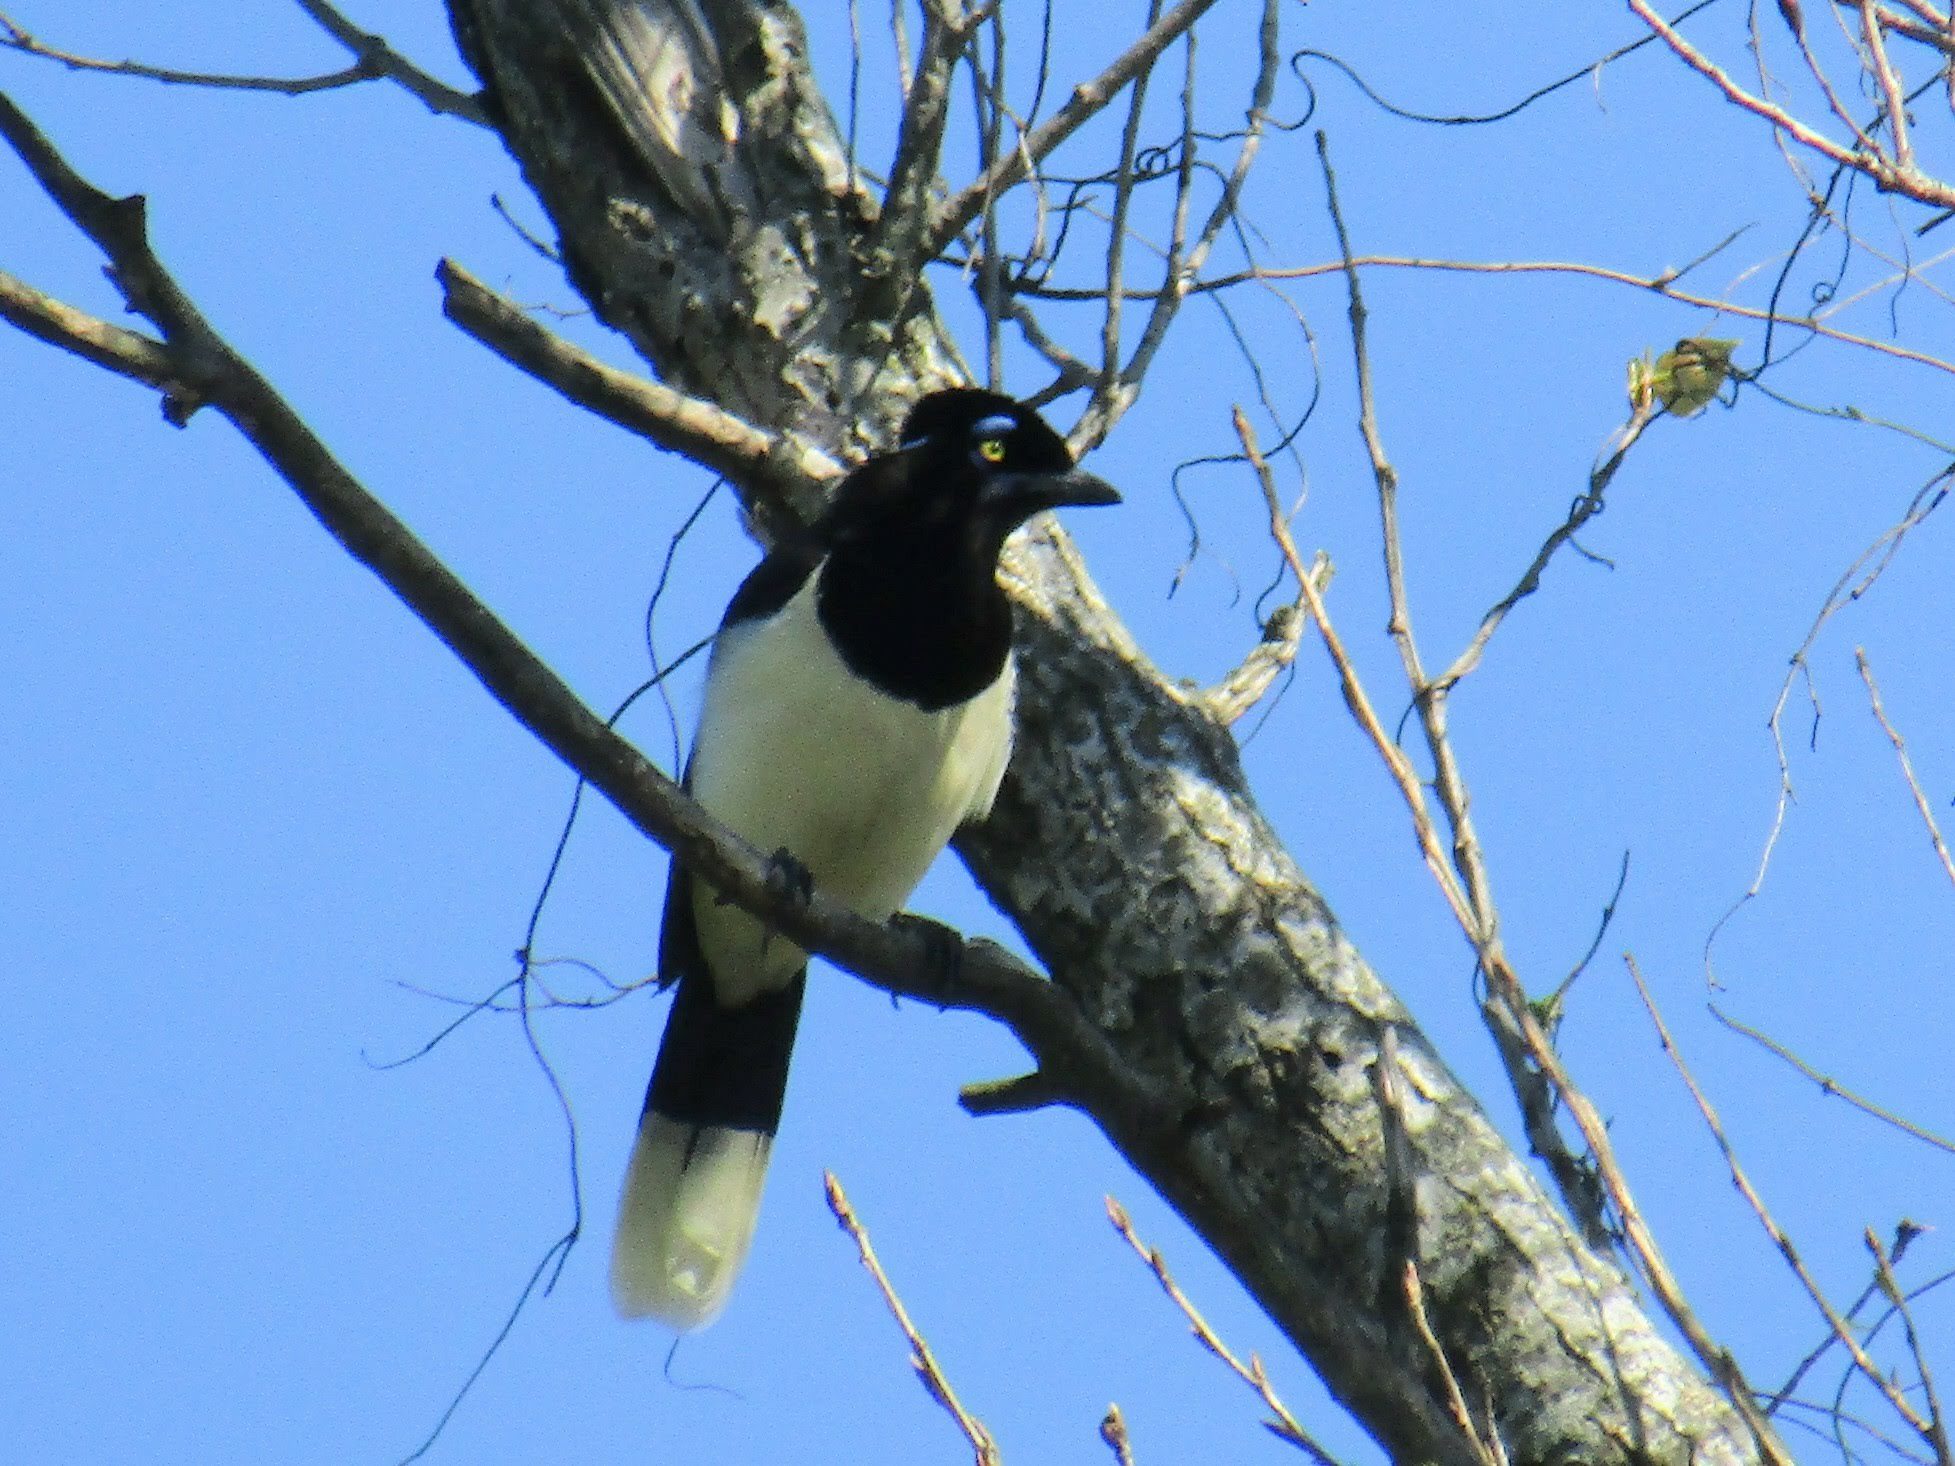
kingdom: Animalia
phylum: Chordata
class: Aves
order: Passeriformes
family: Corvidae
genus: Cyanocorax
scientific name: Cyanocorax chrysops
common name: Plush-crested jay
